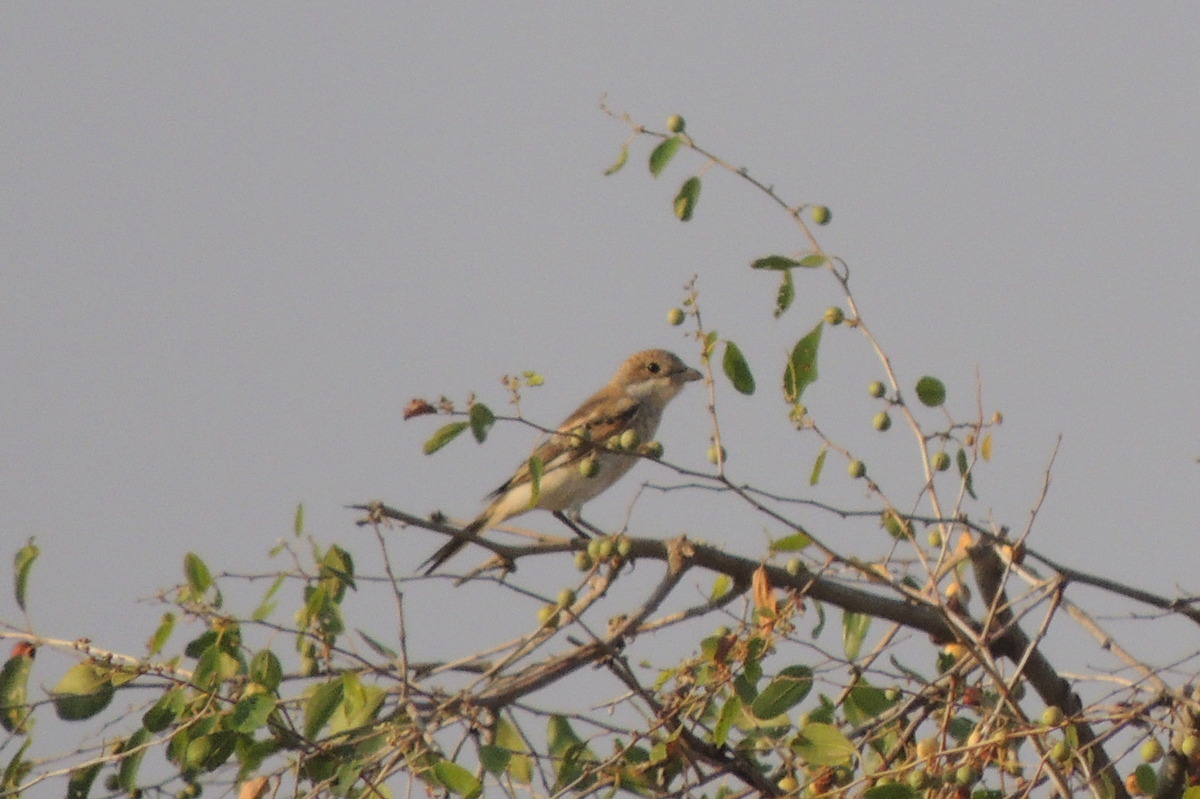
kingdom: Animalia
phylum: Chordata
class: Aves
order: Passeriformes
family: Laniidae
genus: Lanius
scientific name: Lanius nubicus
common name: Masked shrike
